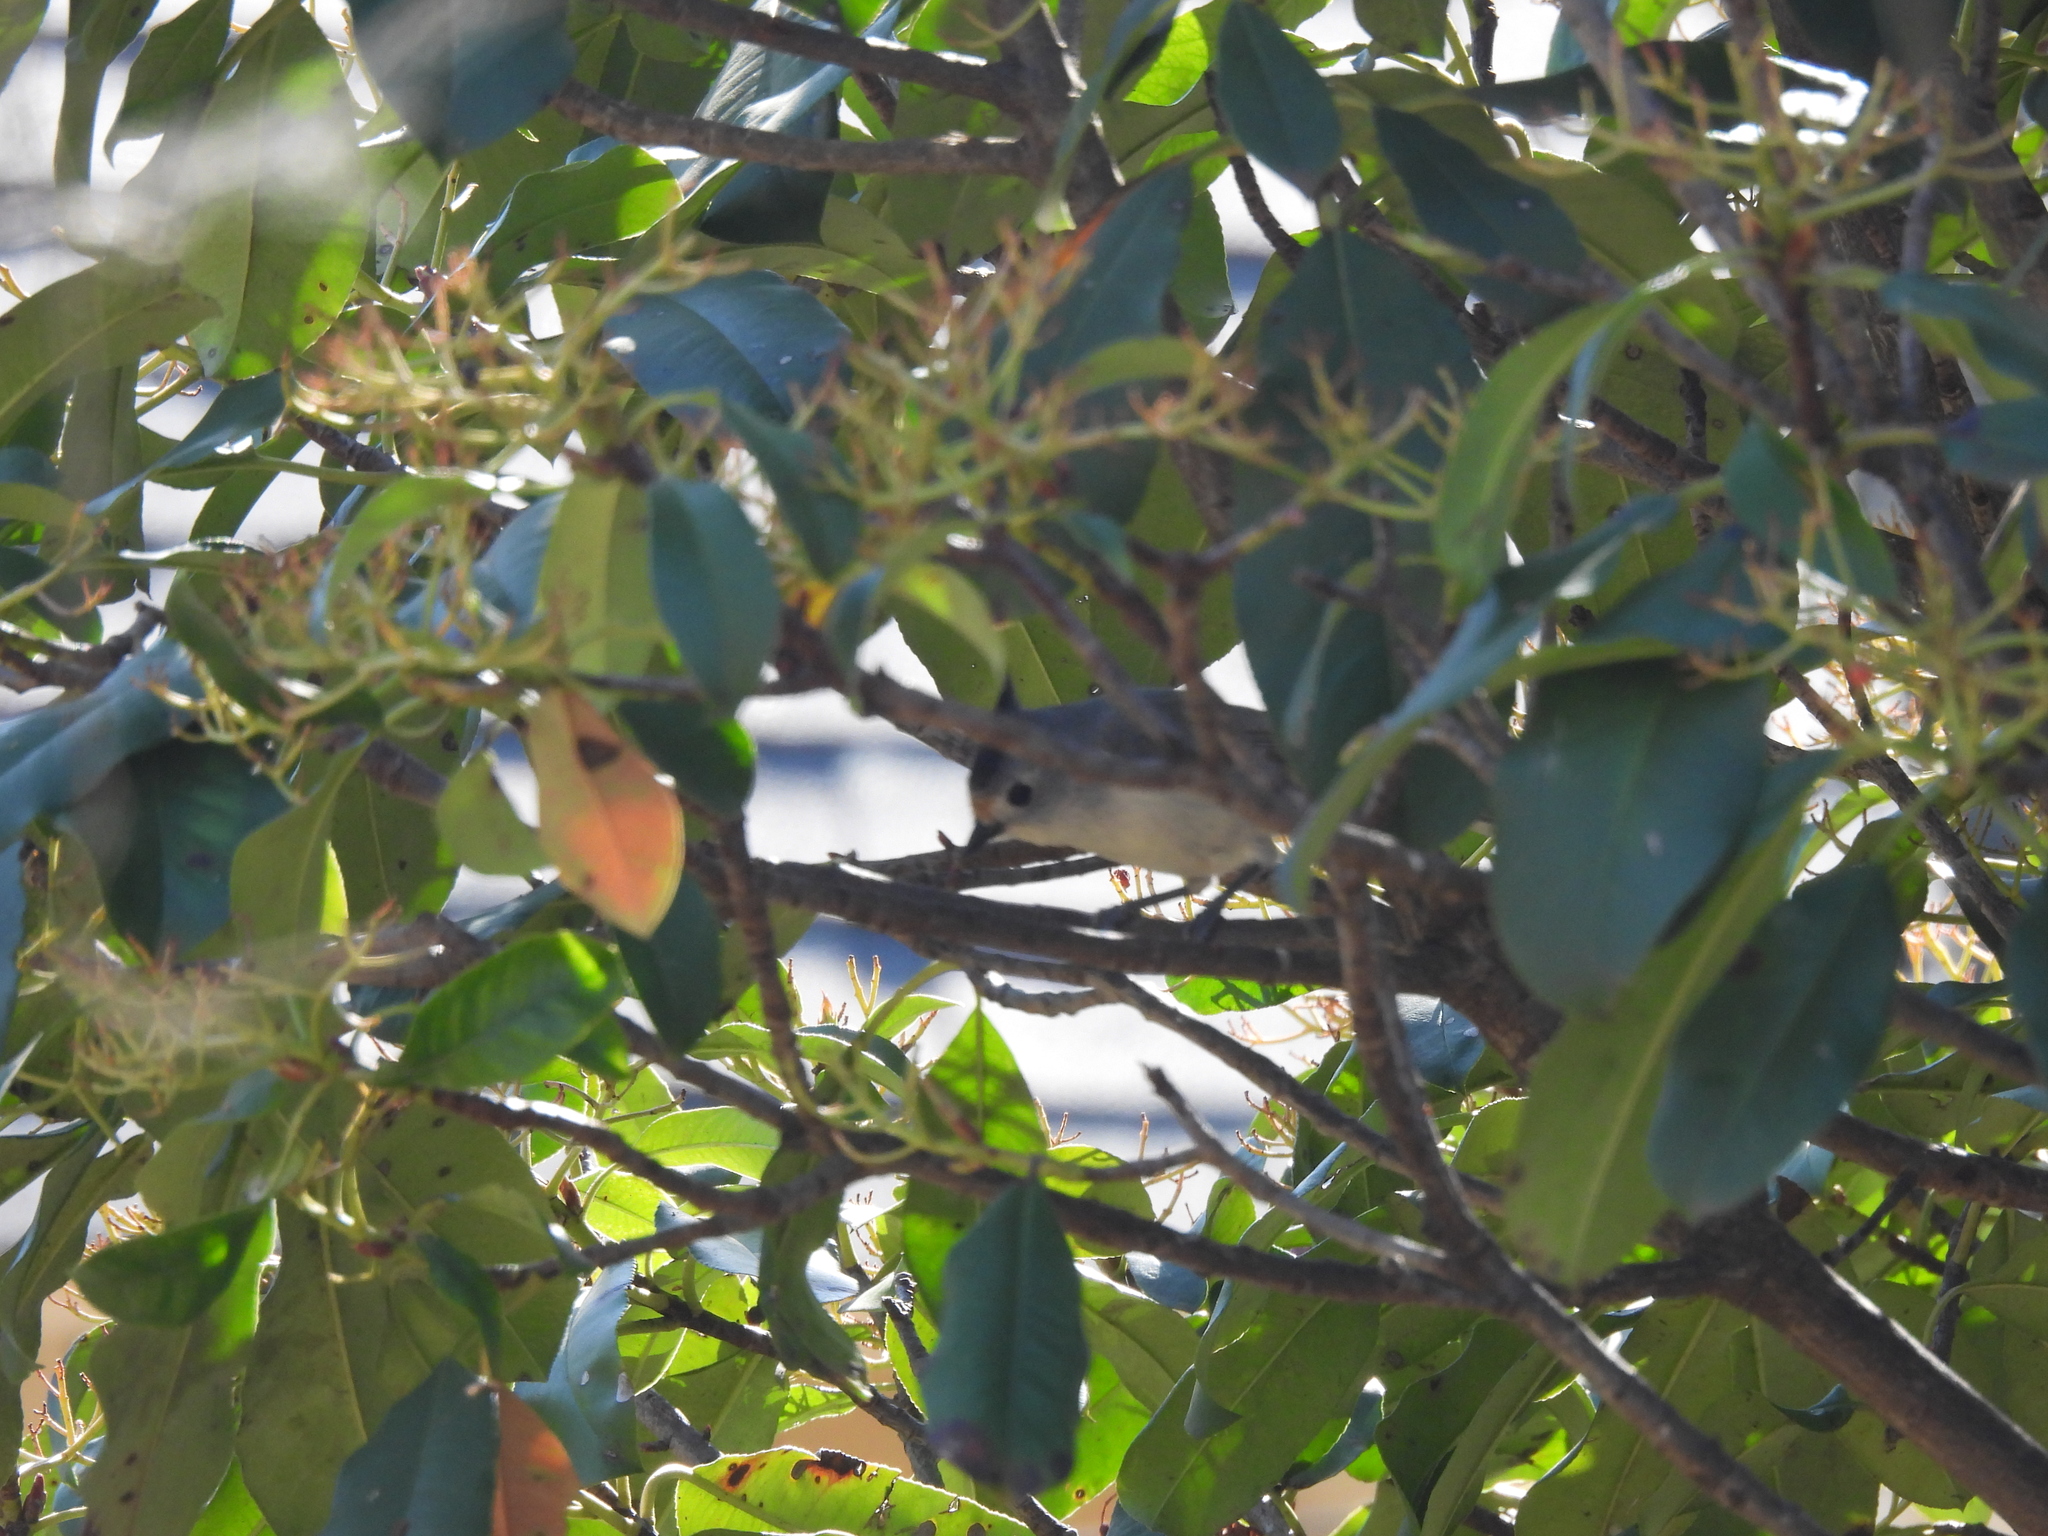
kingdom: Animalia
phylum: Chordata
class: Aves
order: Passeriformes
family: Paridae
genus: Baeolophus
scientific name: Baeolophus atricristatus
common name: Black-crested titmouse
